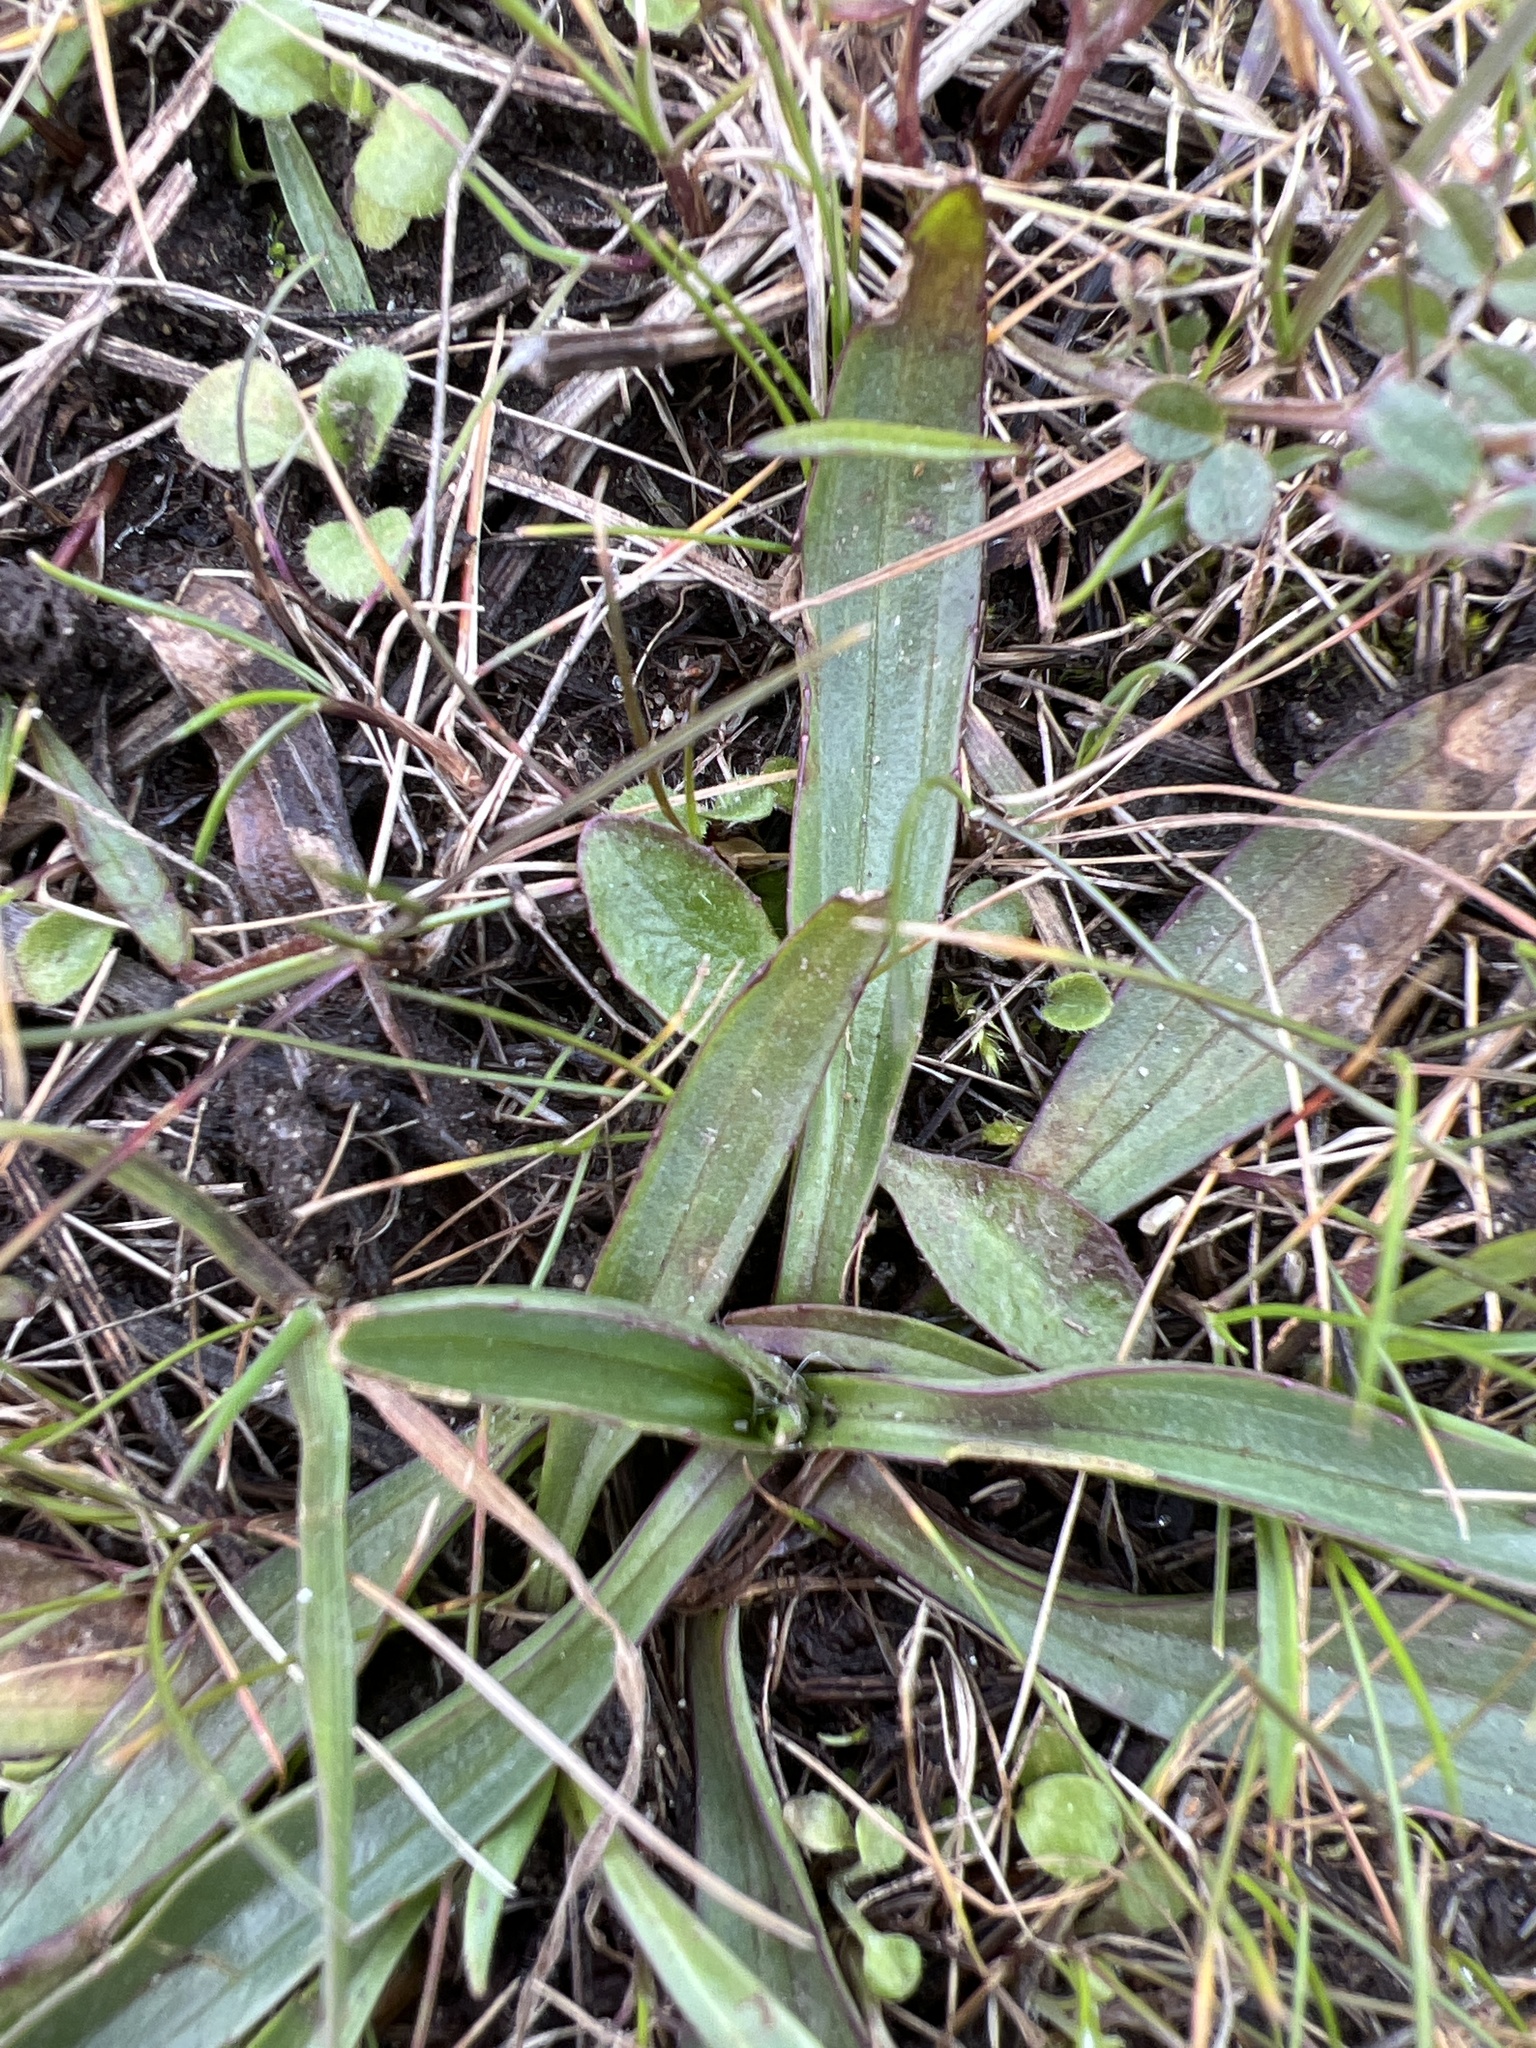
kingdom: Plantae
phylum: Tracheophyta
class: Magnoliopsida
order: Lamiales
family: Plantaginaceae
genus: Plantago
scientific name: Plantago lanceolata
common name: Ribwort plantain
